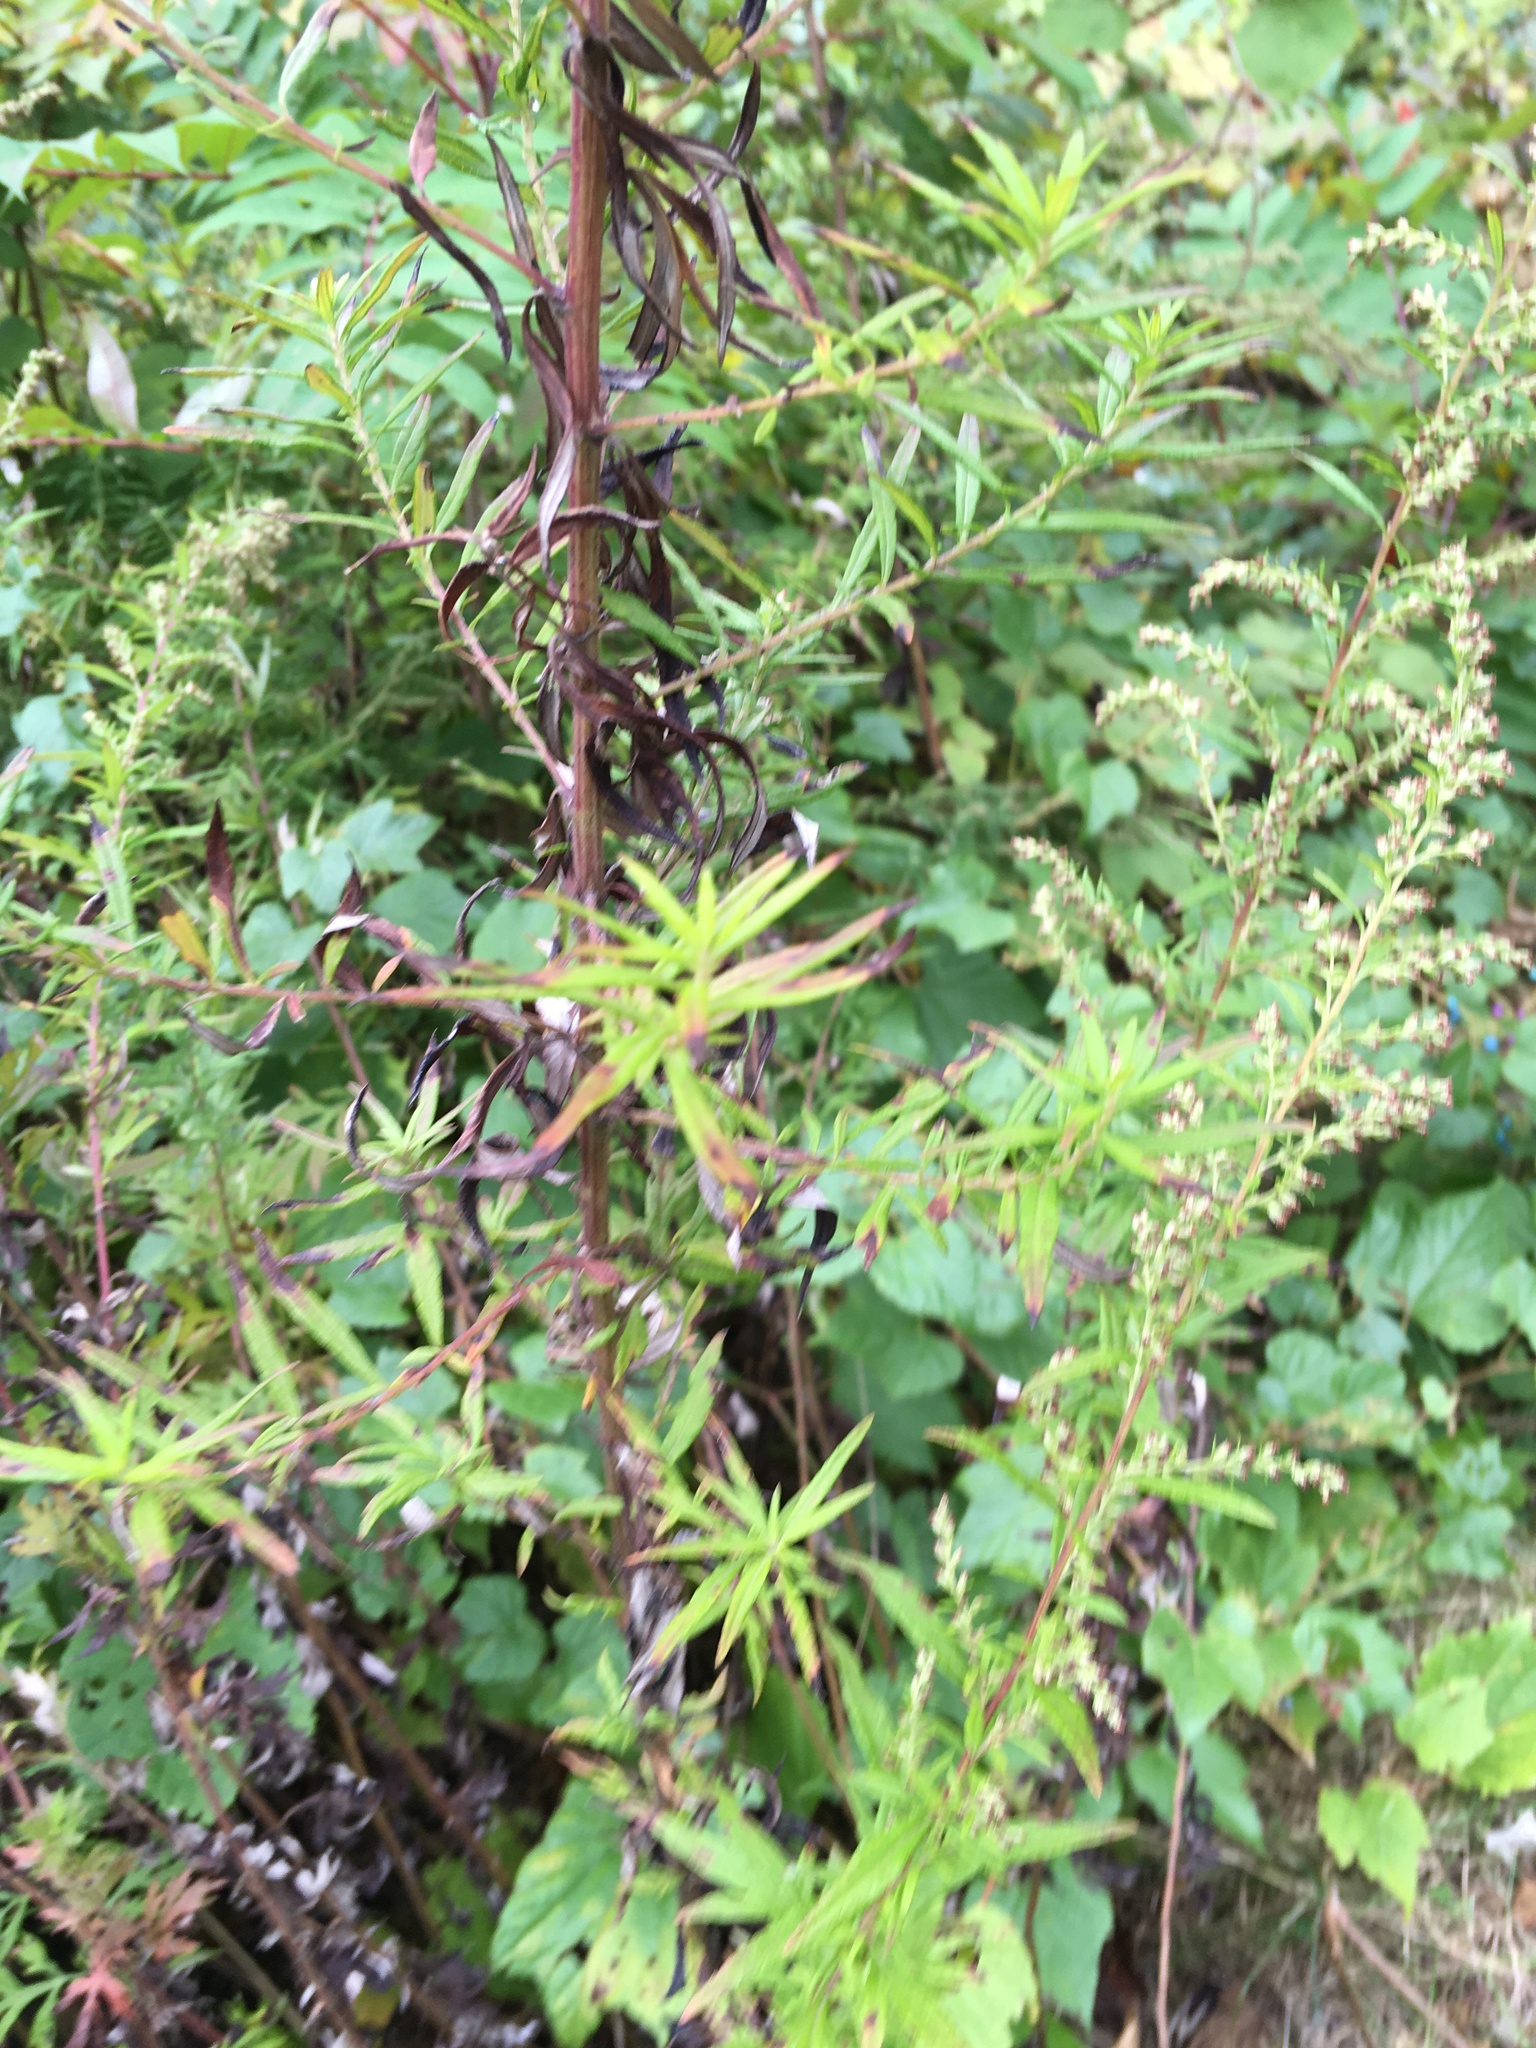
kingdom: Plantae
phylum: Tracheophyta
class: Magnoliopsida
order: Asterales
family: Asteraceae
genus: Artemisia
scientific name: Artemisia vulgaris
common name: Mugwort
